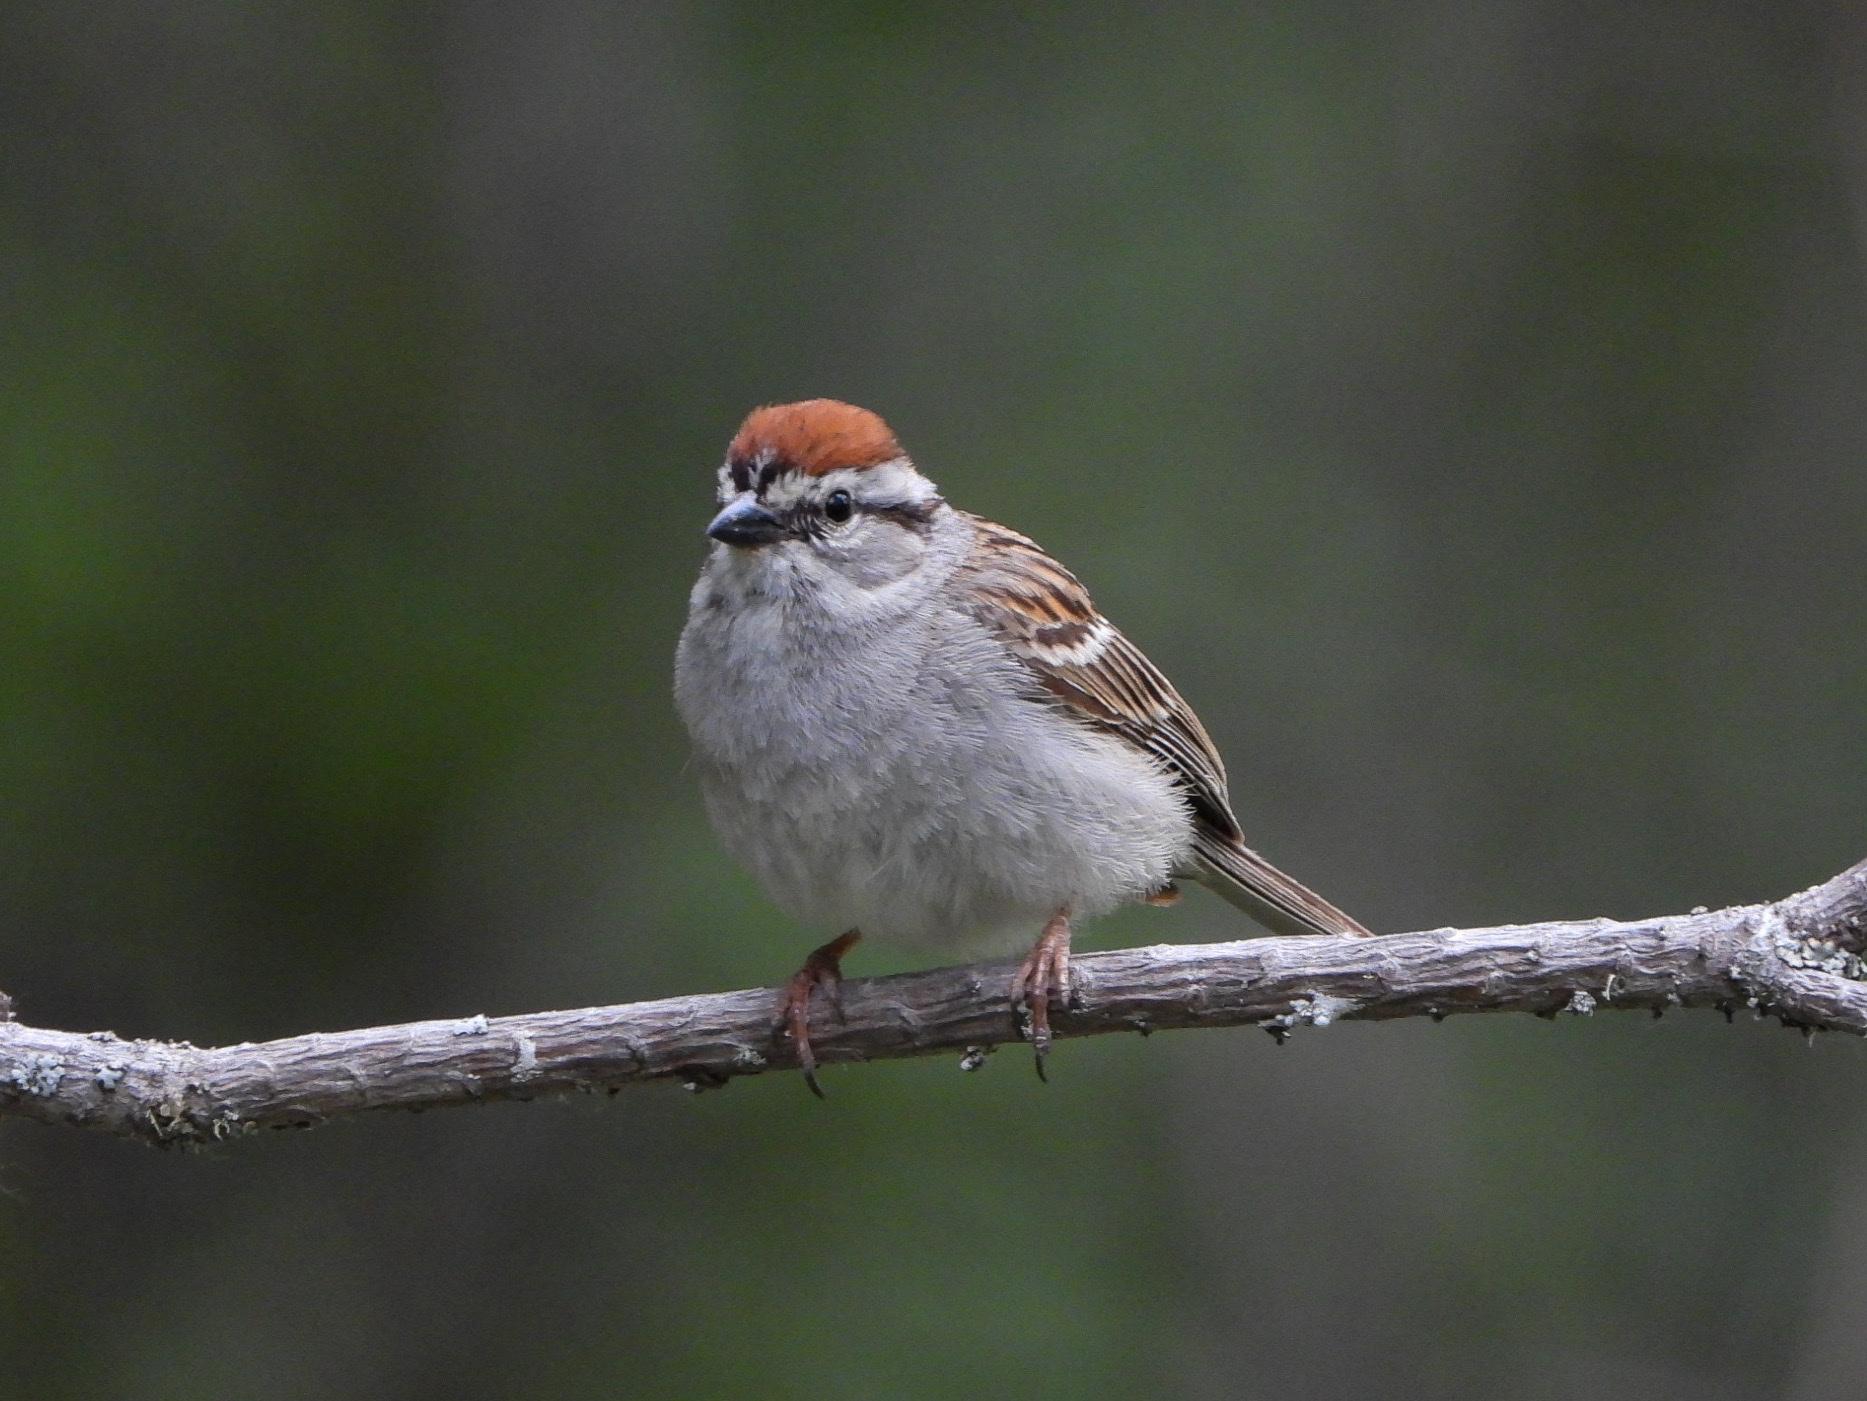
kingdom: Animalia
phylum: Chordata
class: Aves
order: Passeriformes
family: Passerellidae
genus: Spizella
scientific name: Spizella passerina
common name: Chipping sparrow
